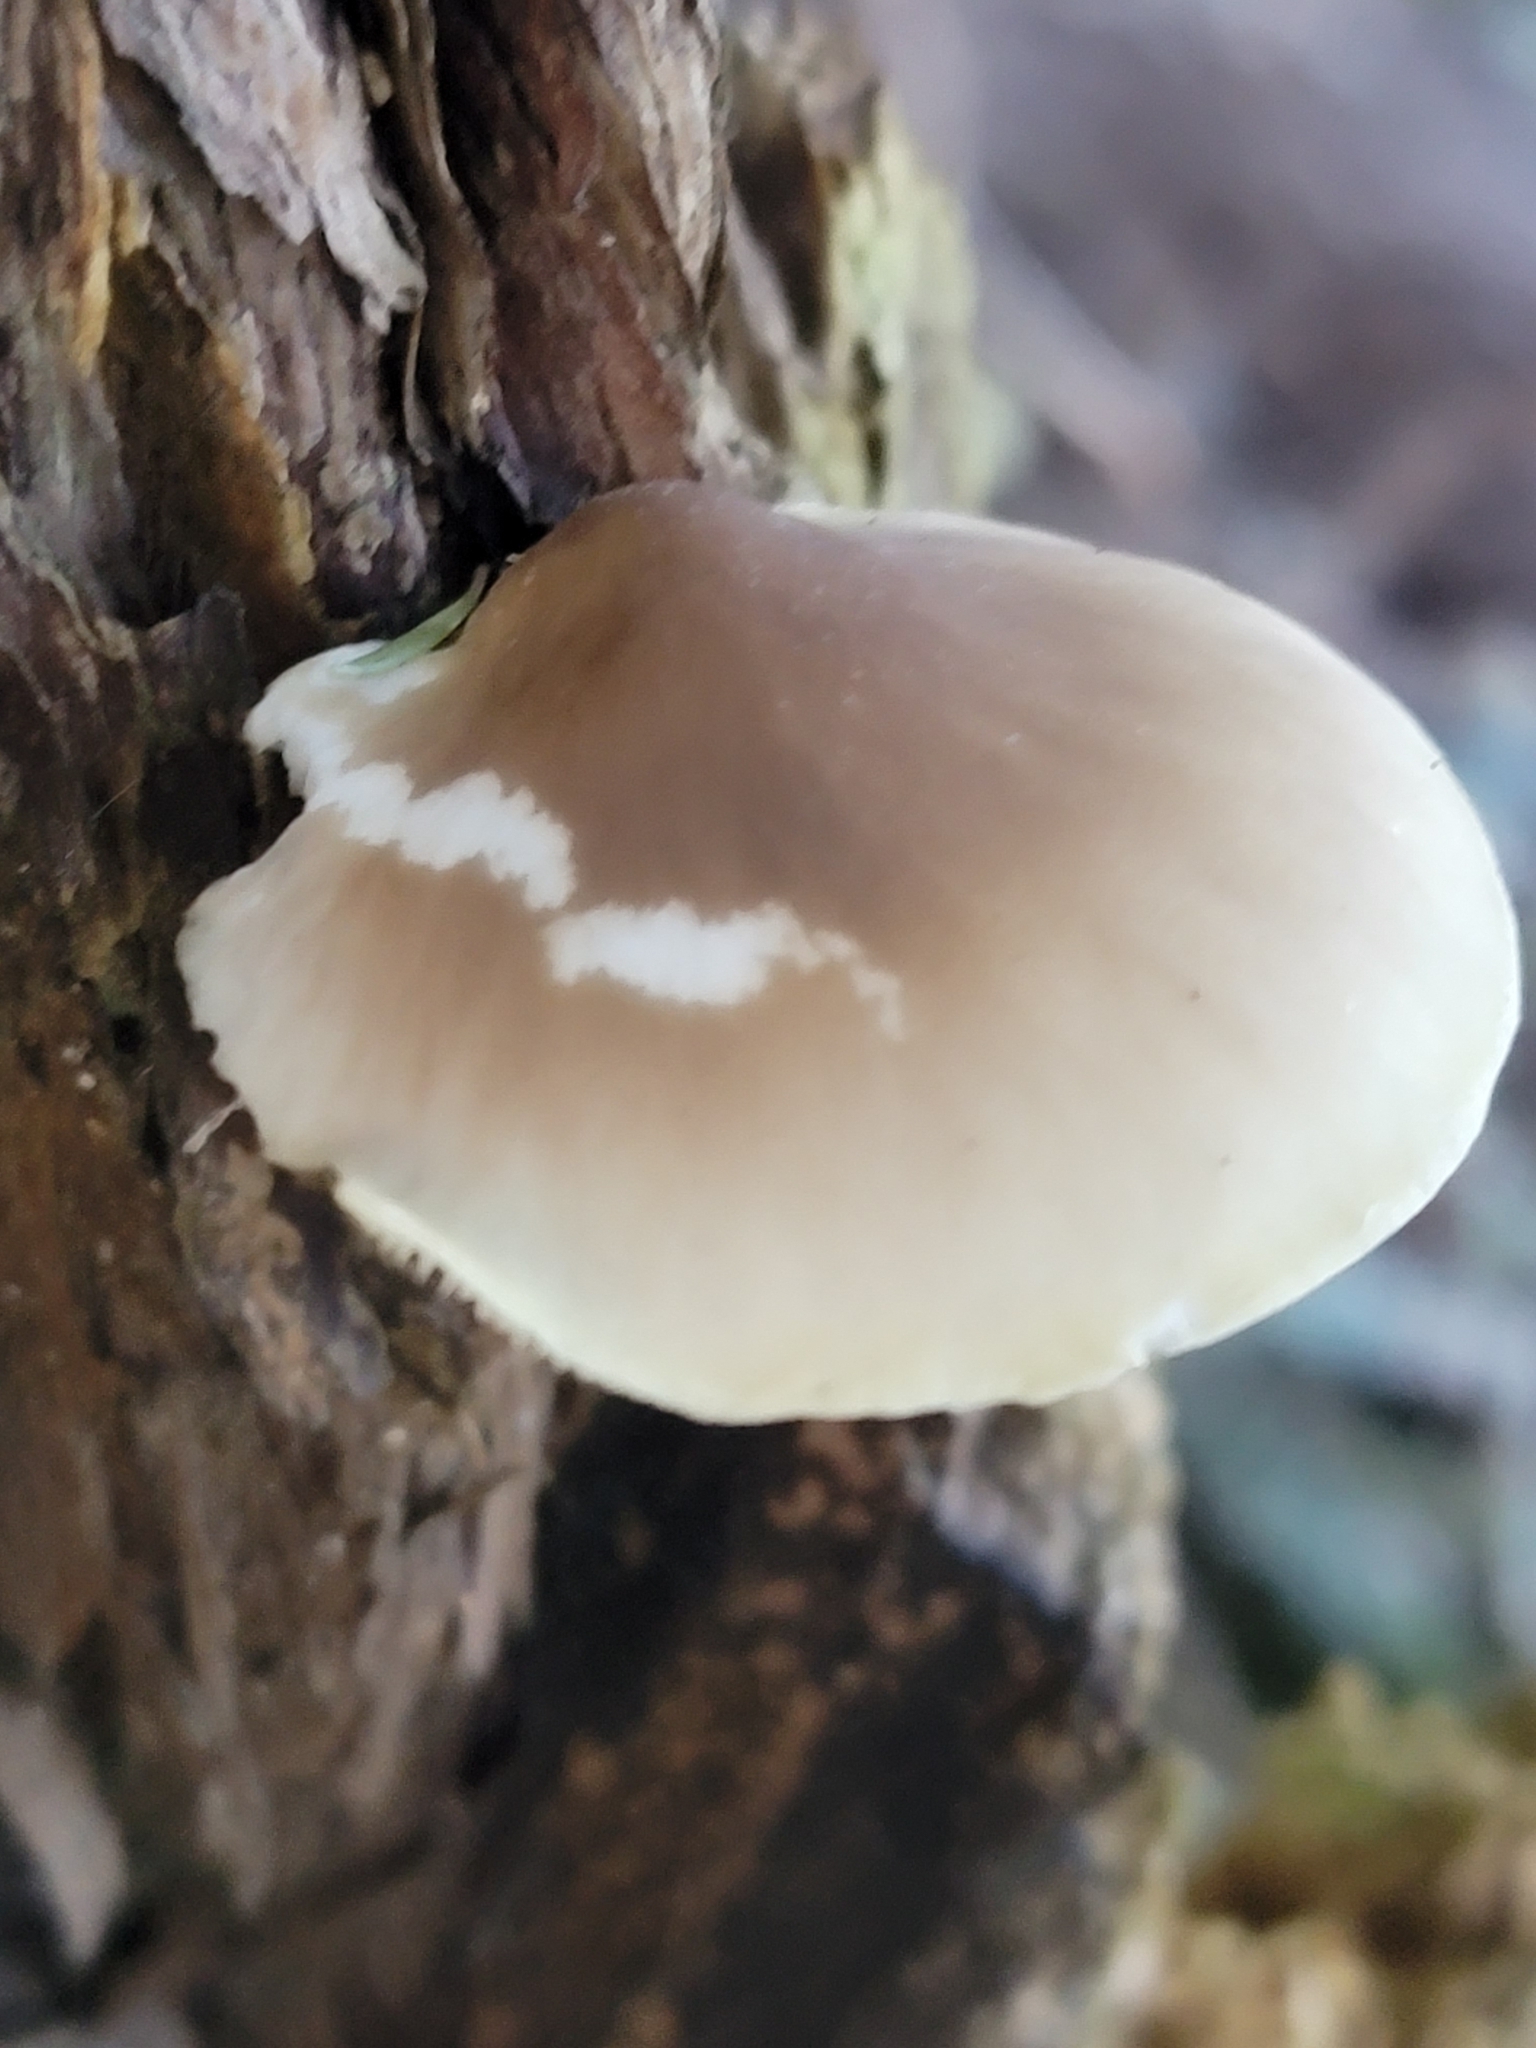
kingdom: Fungi
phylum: Basidiomycota
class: Agaricomycetes
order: Agaricales
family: Pleurotaceae
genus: Pleurotus
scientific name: Pleurotus australis
